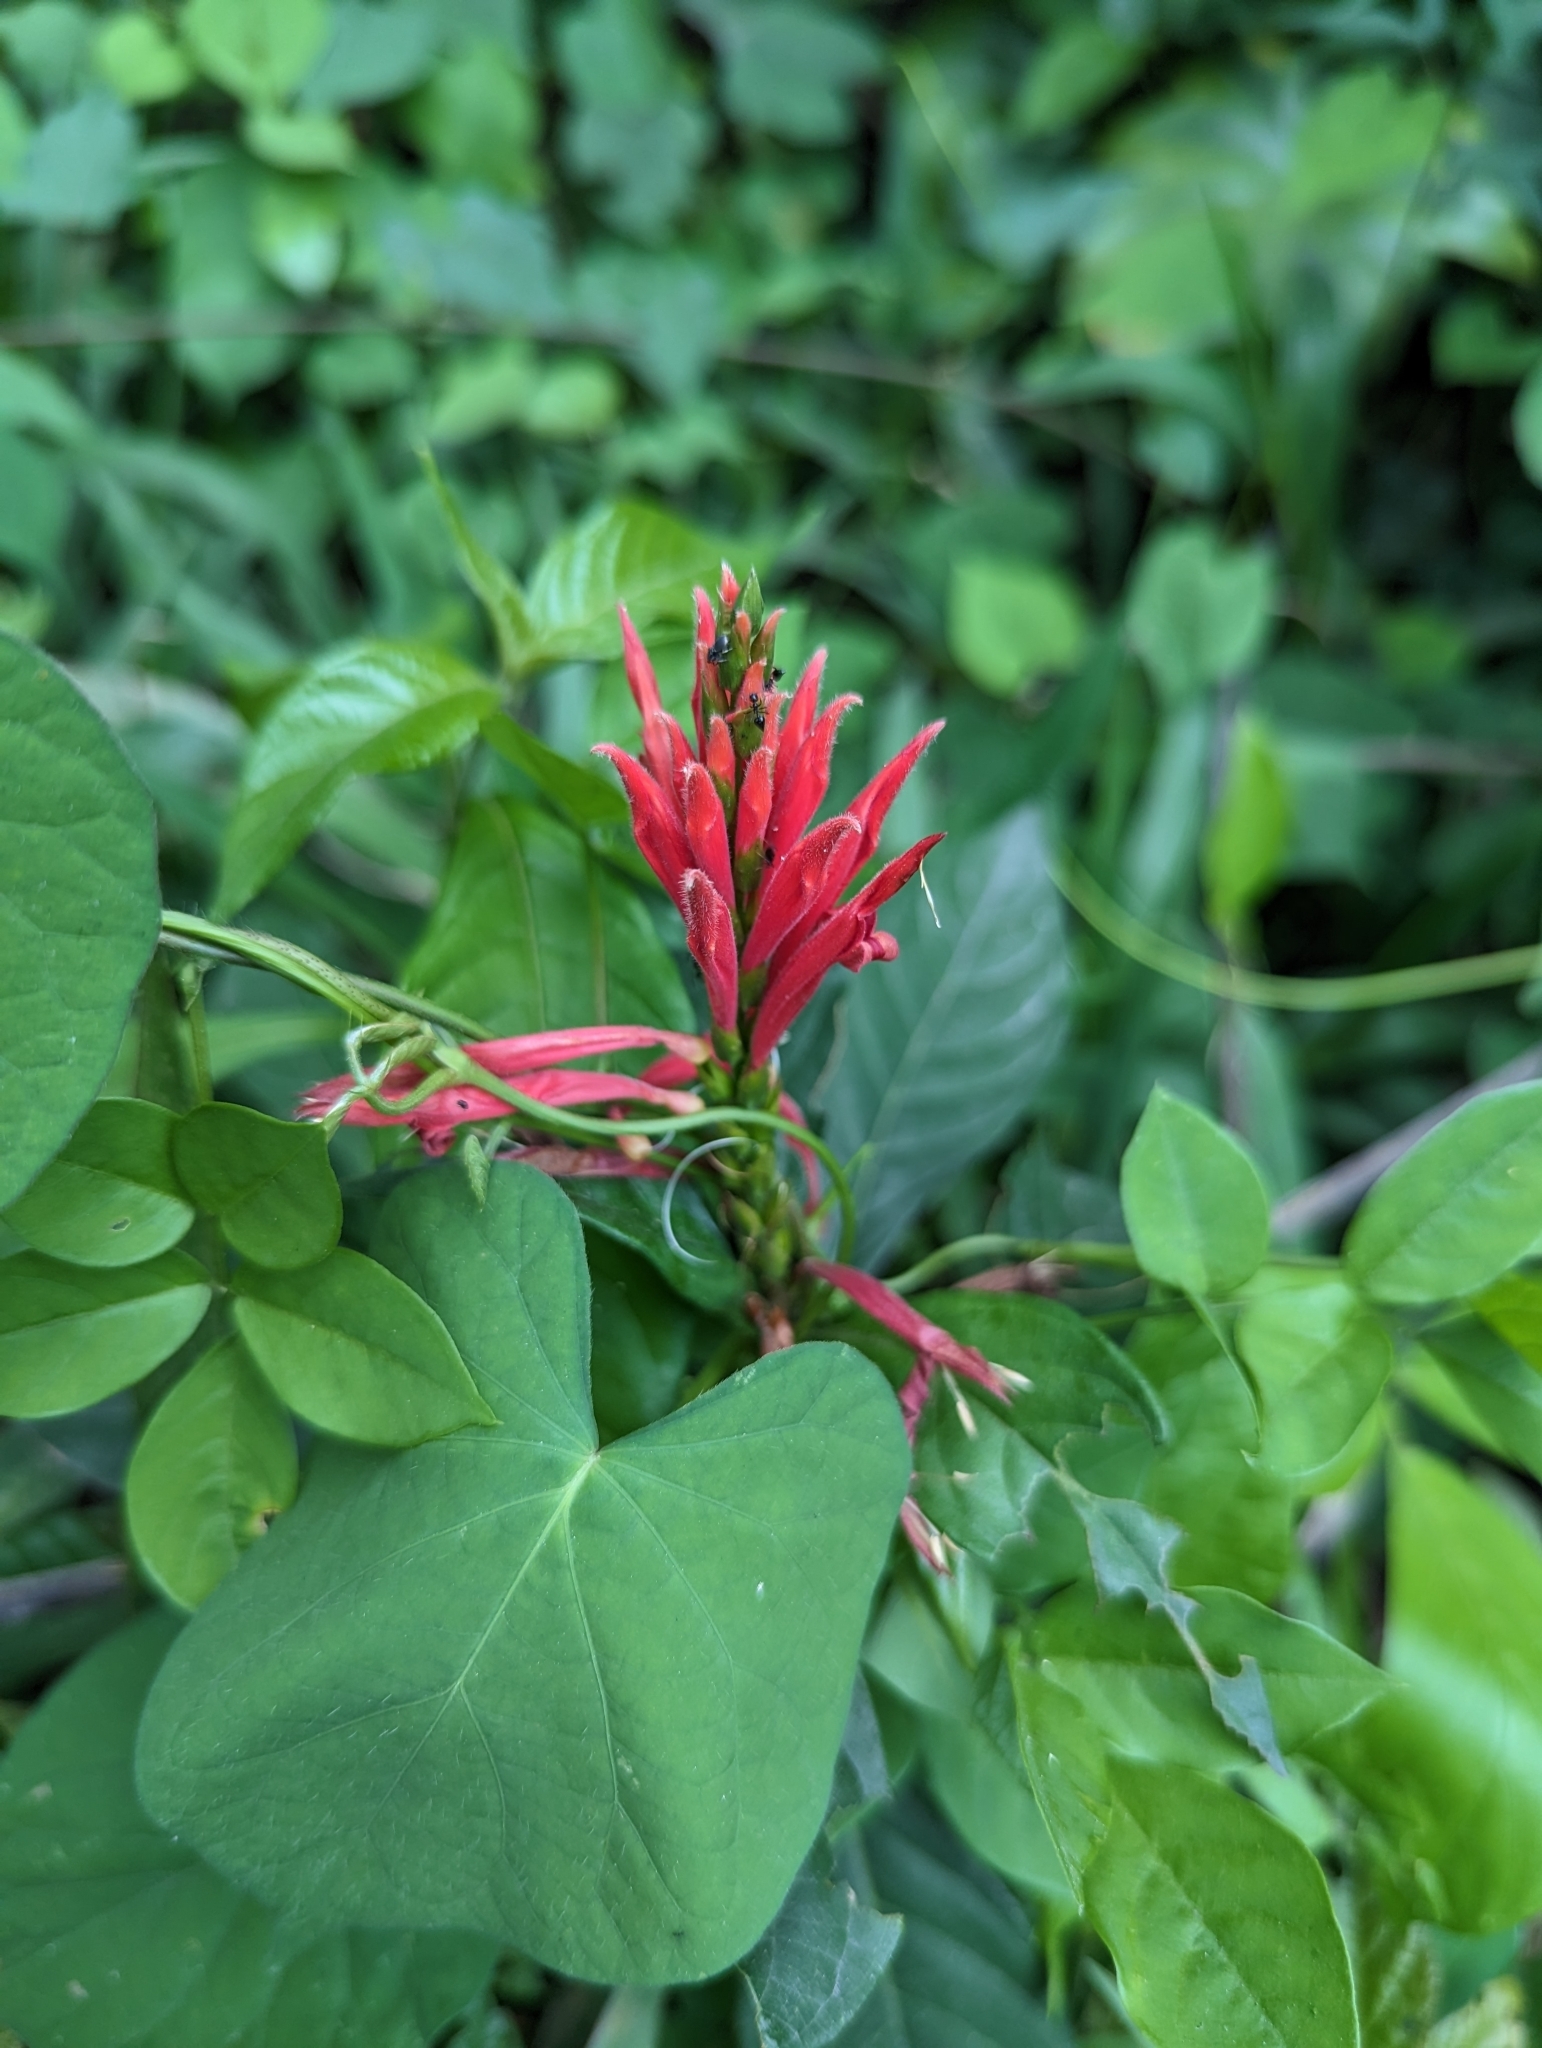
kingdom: Plantae
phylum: Tracheophyta
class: Magnoliopsida
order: Lamiales
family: Acanthaceae
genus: Aphelandra
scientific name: Aphelandra scabra
